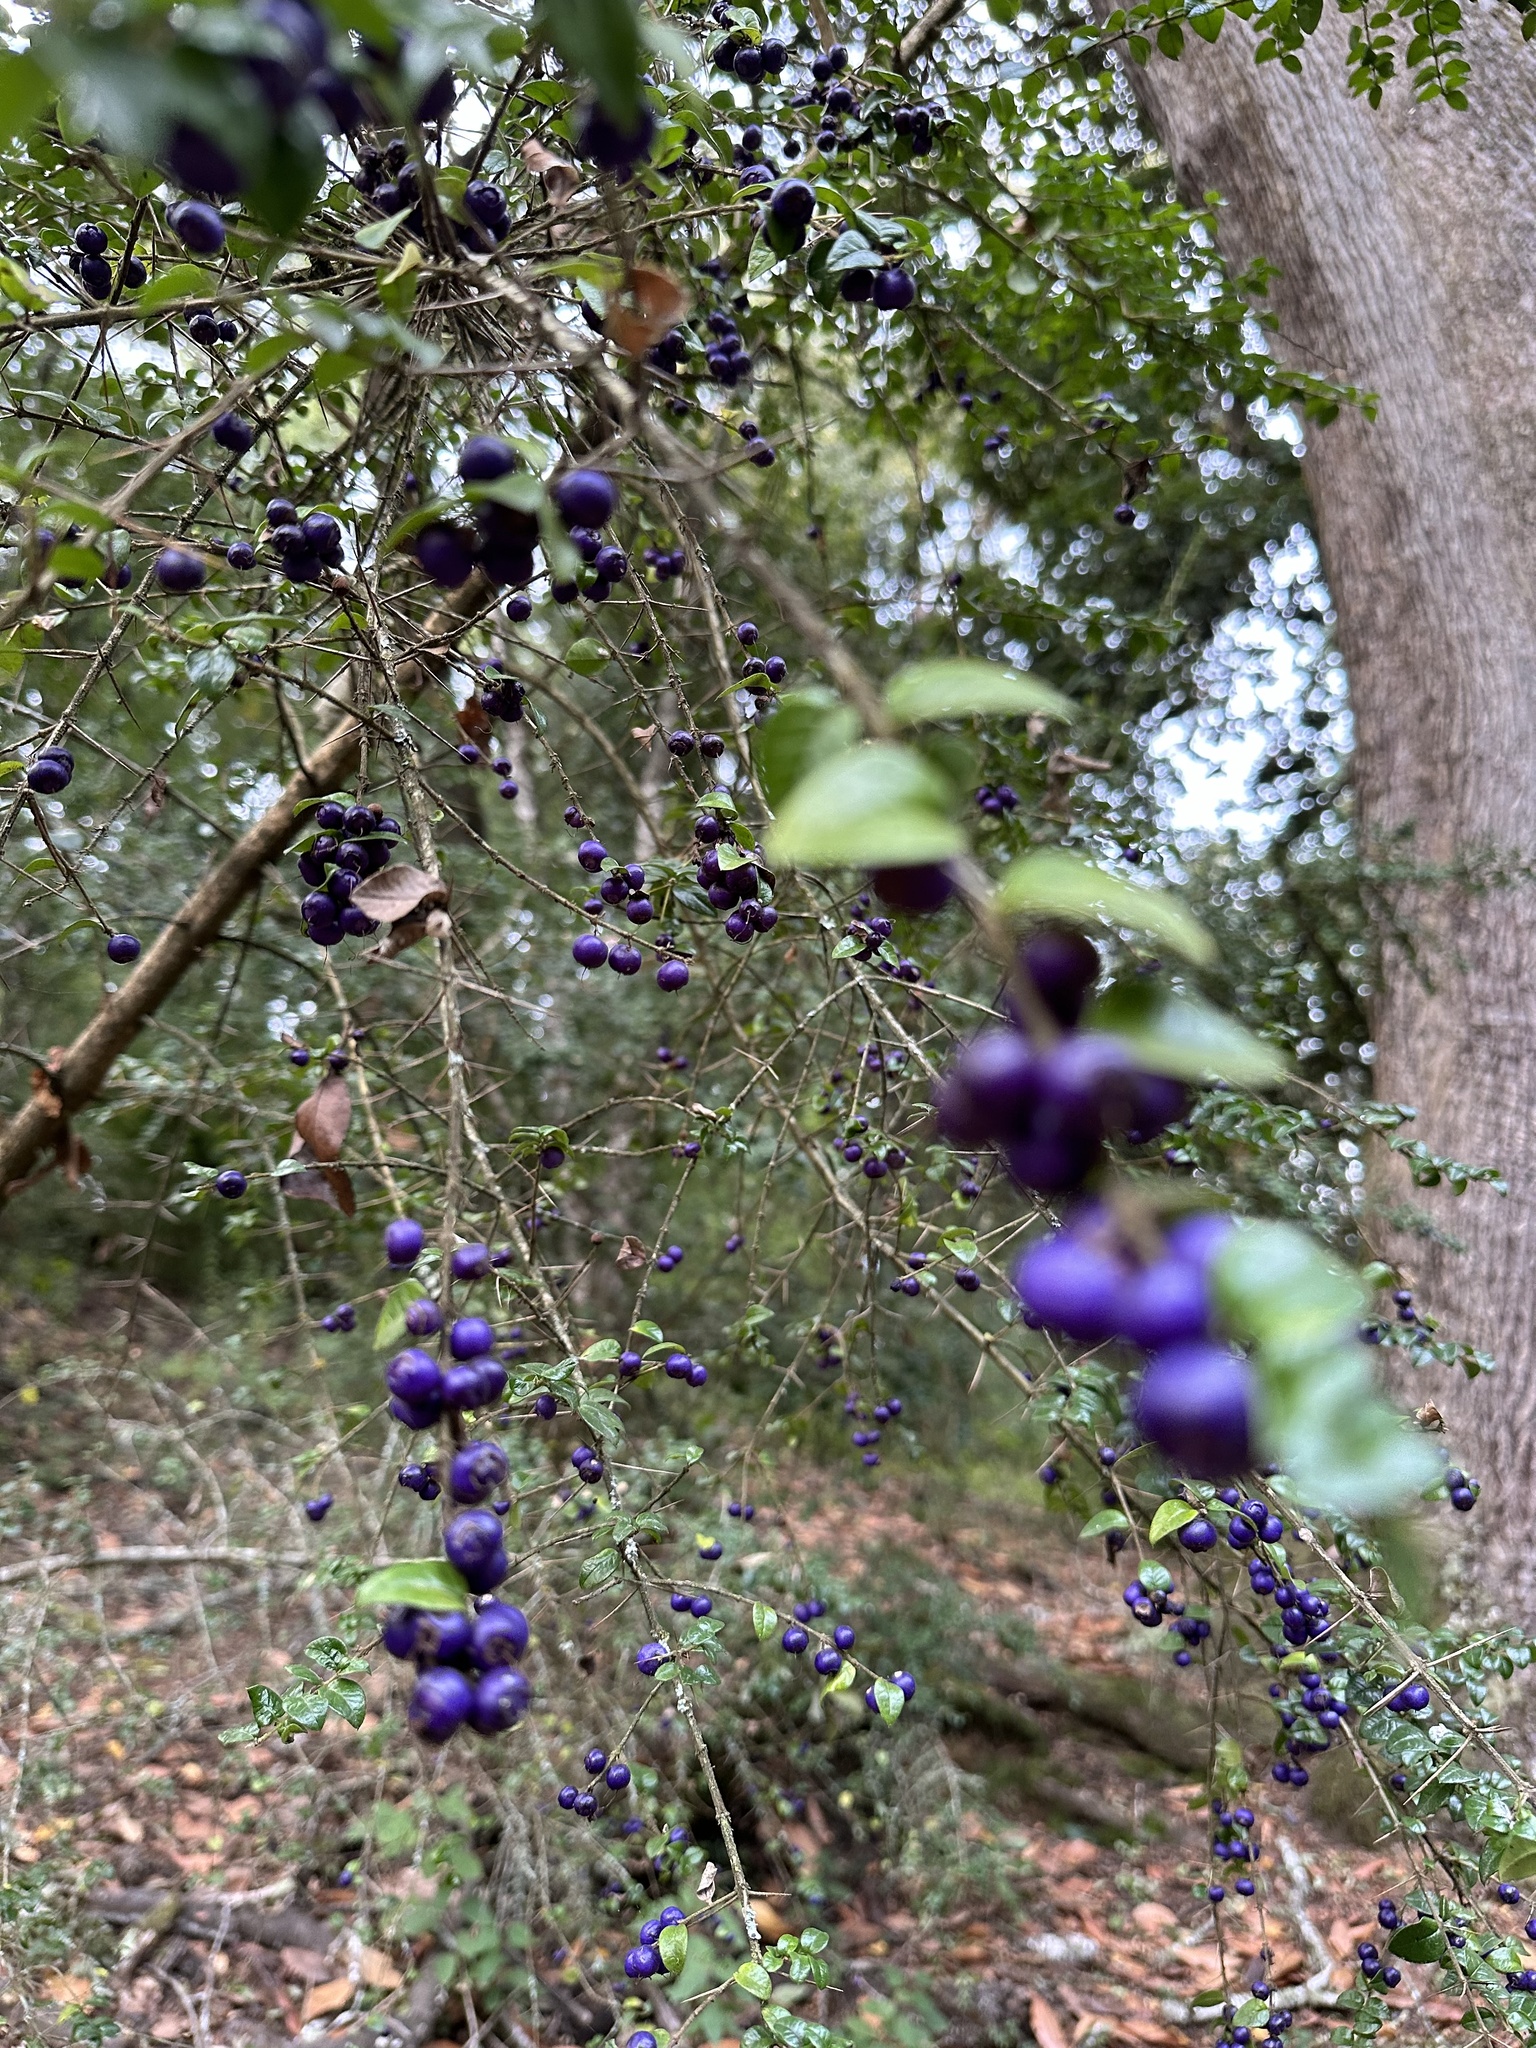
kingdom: Plantae
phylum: Tracheophyta
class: Magnoliopsida
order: Lamiales
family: Verbenaceae
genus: Rhaphithamnus
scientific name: Rhaphithamnus spinosus
